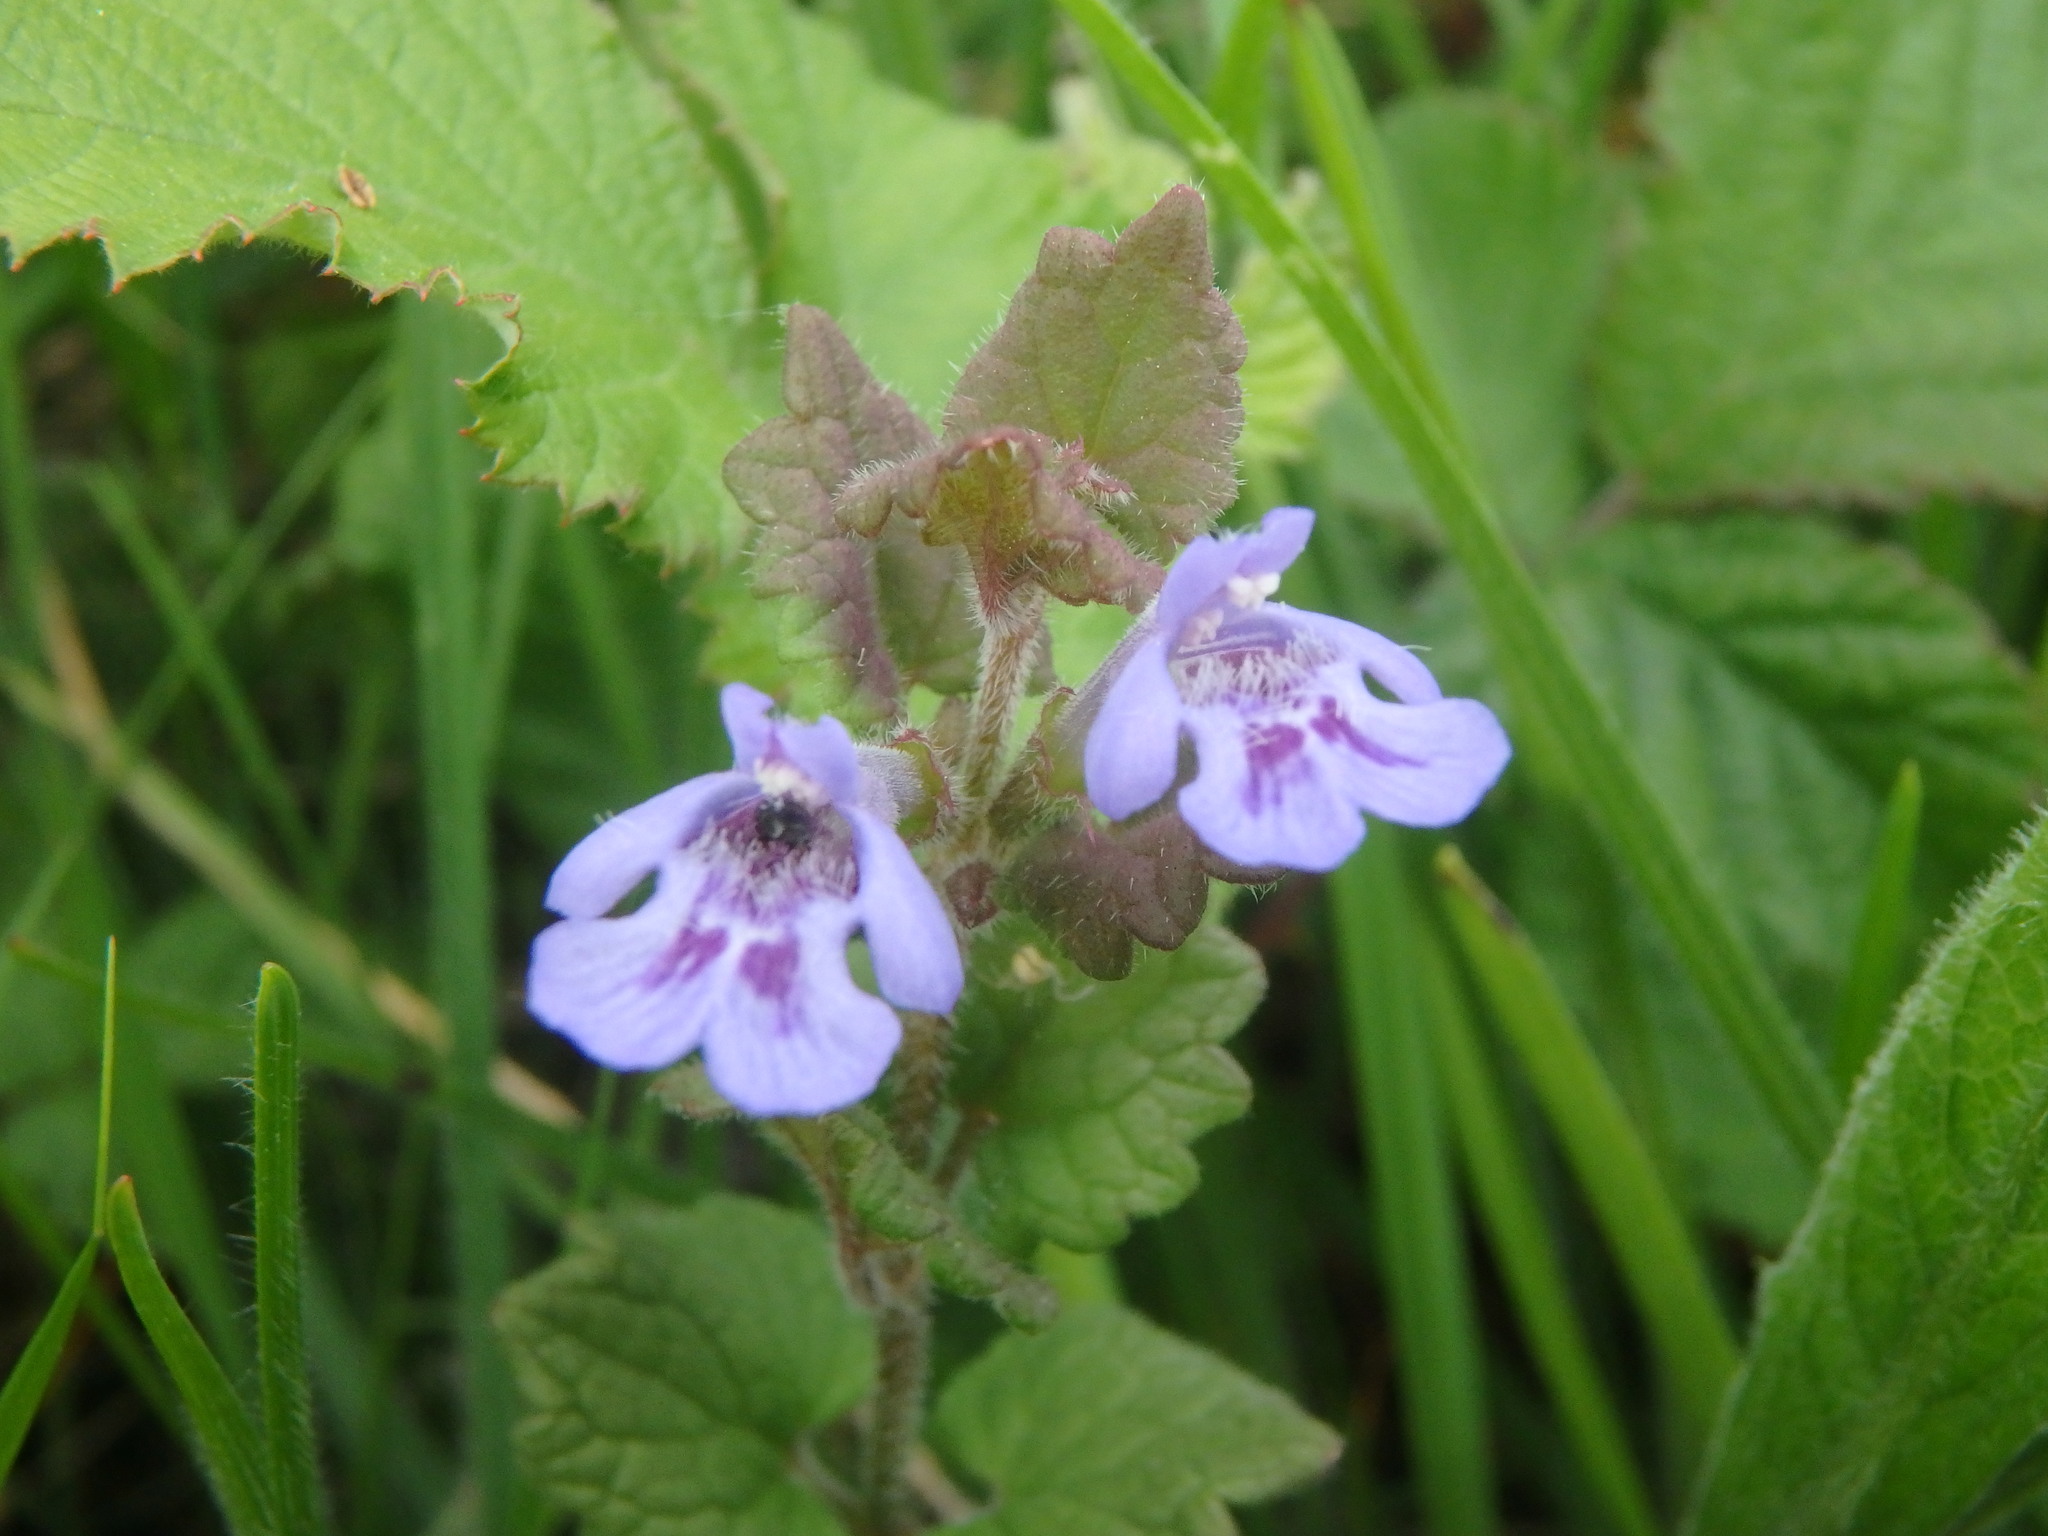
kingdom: Plantae
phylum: Tracheophyta
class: Magnoliopsida
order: Lamiales
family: Lamiaceae
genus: Glechoma
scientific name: Glechoma hederacea
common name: Ground ivy
